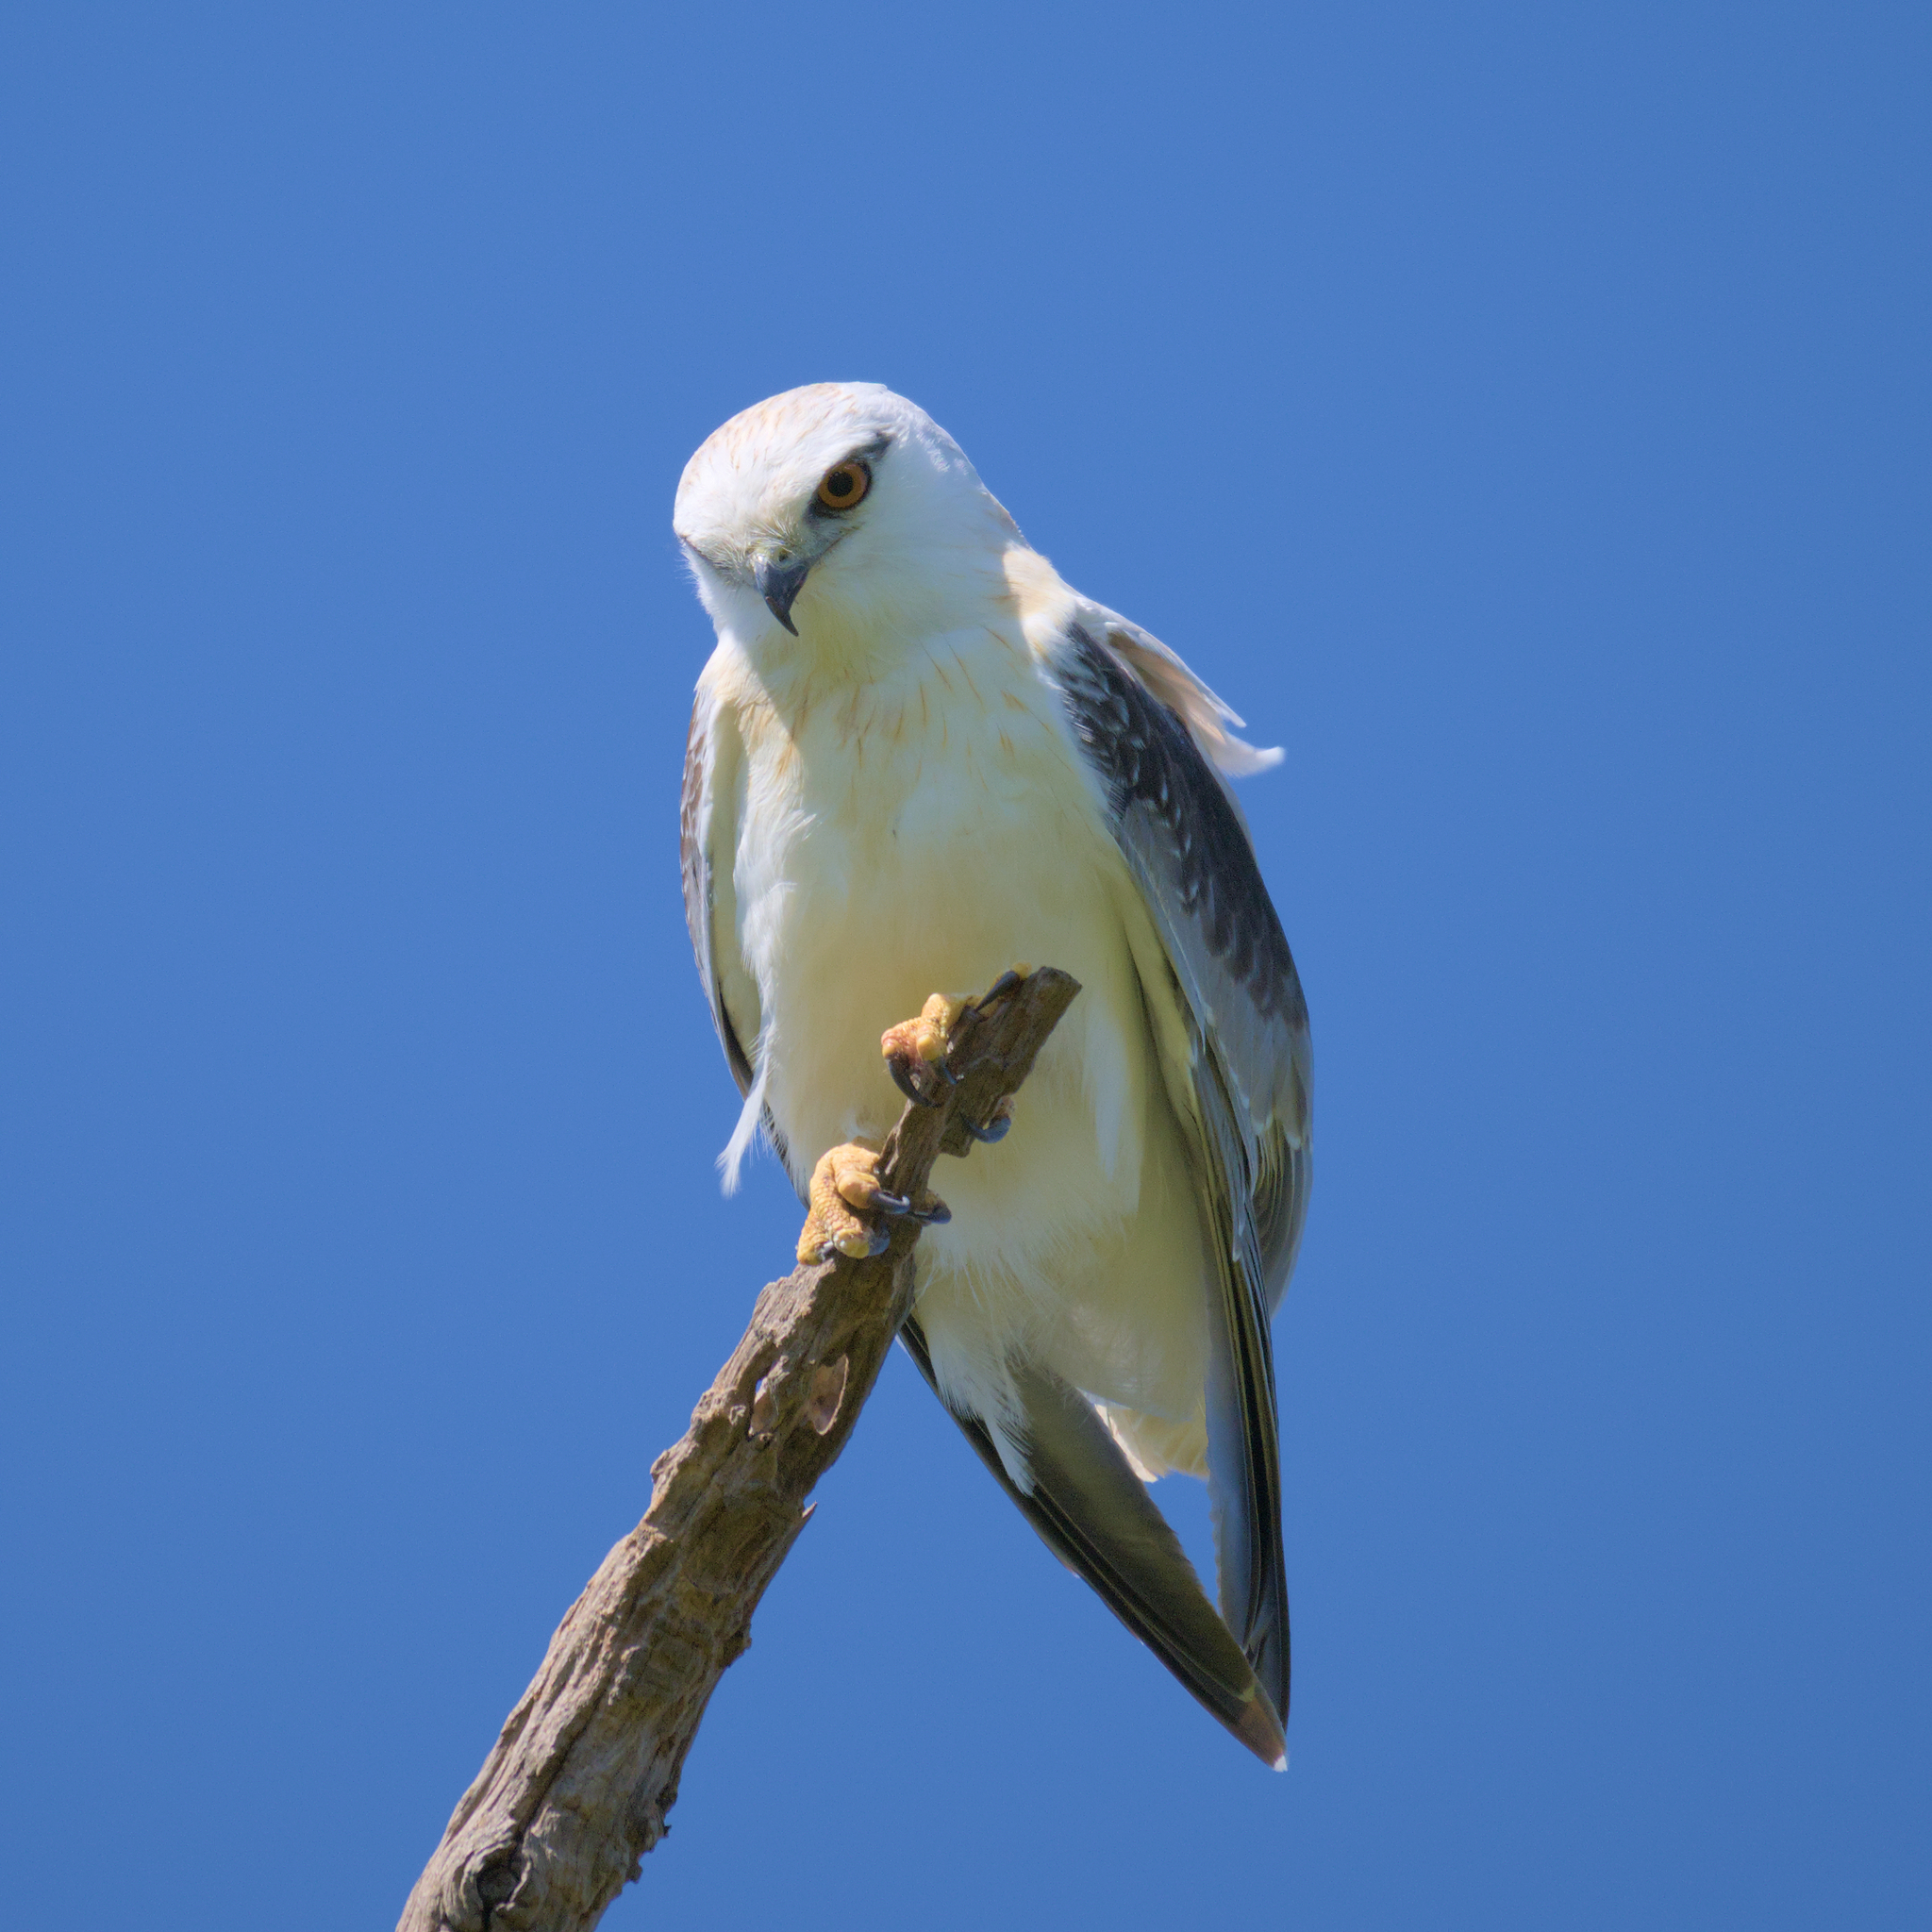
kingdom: Animalia
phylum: Chordata
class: Aves
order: Accipitriformes
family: Accipitridae
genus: Elanus
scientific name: Elanus axillaris
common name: Black-shouldered kite
